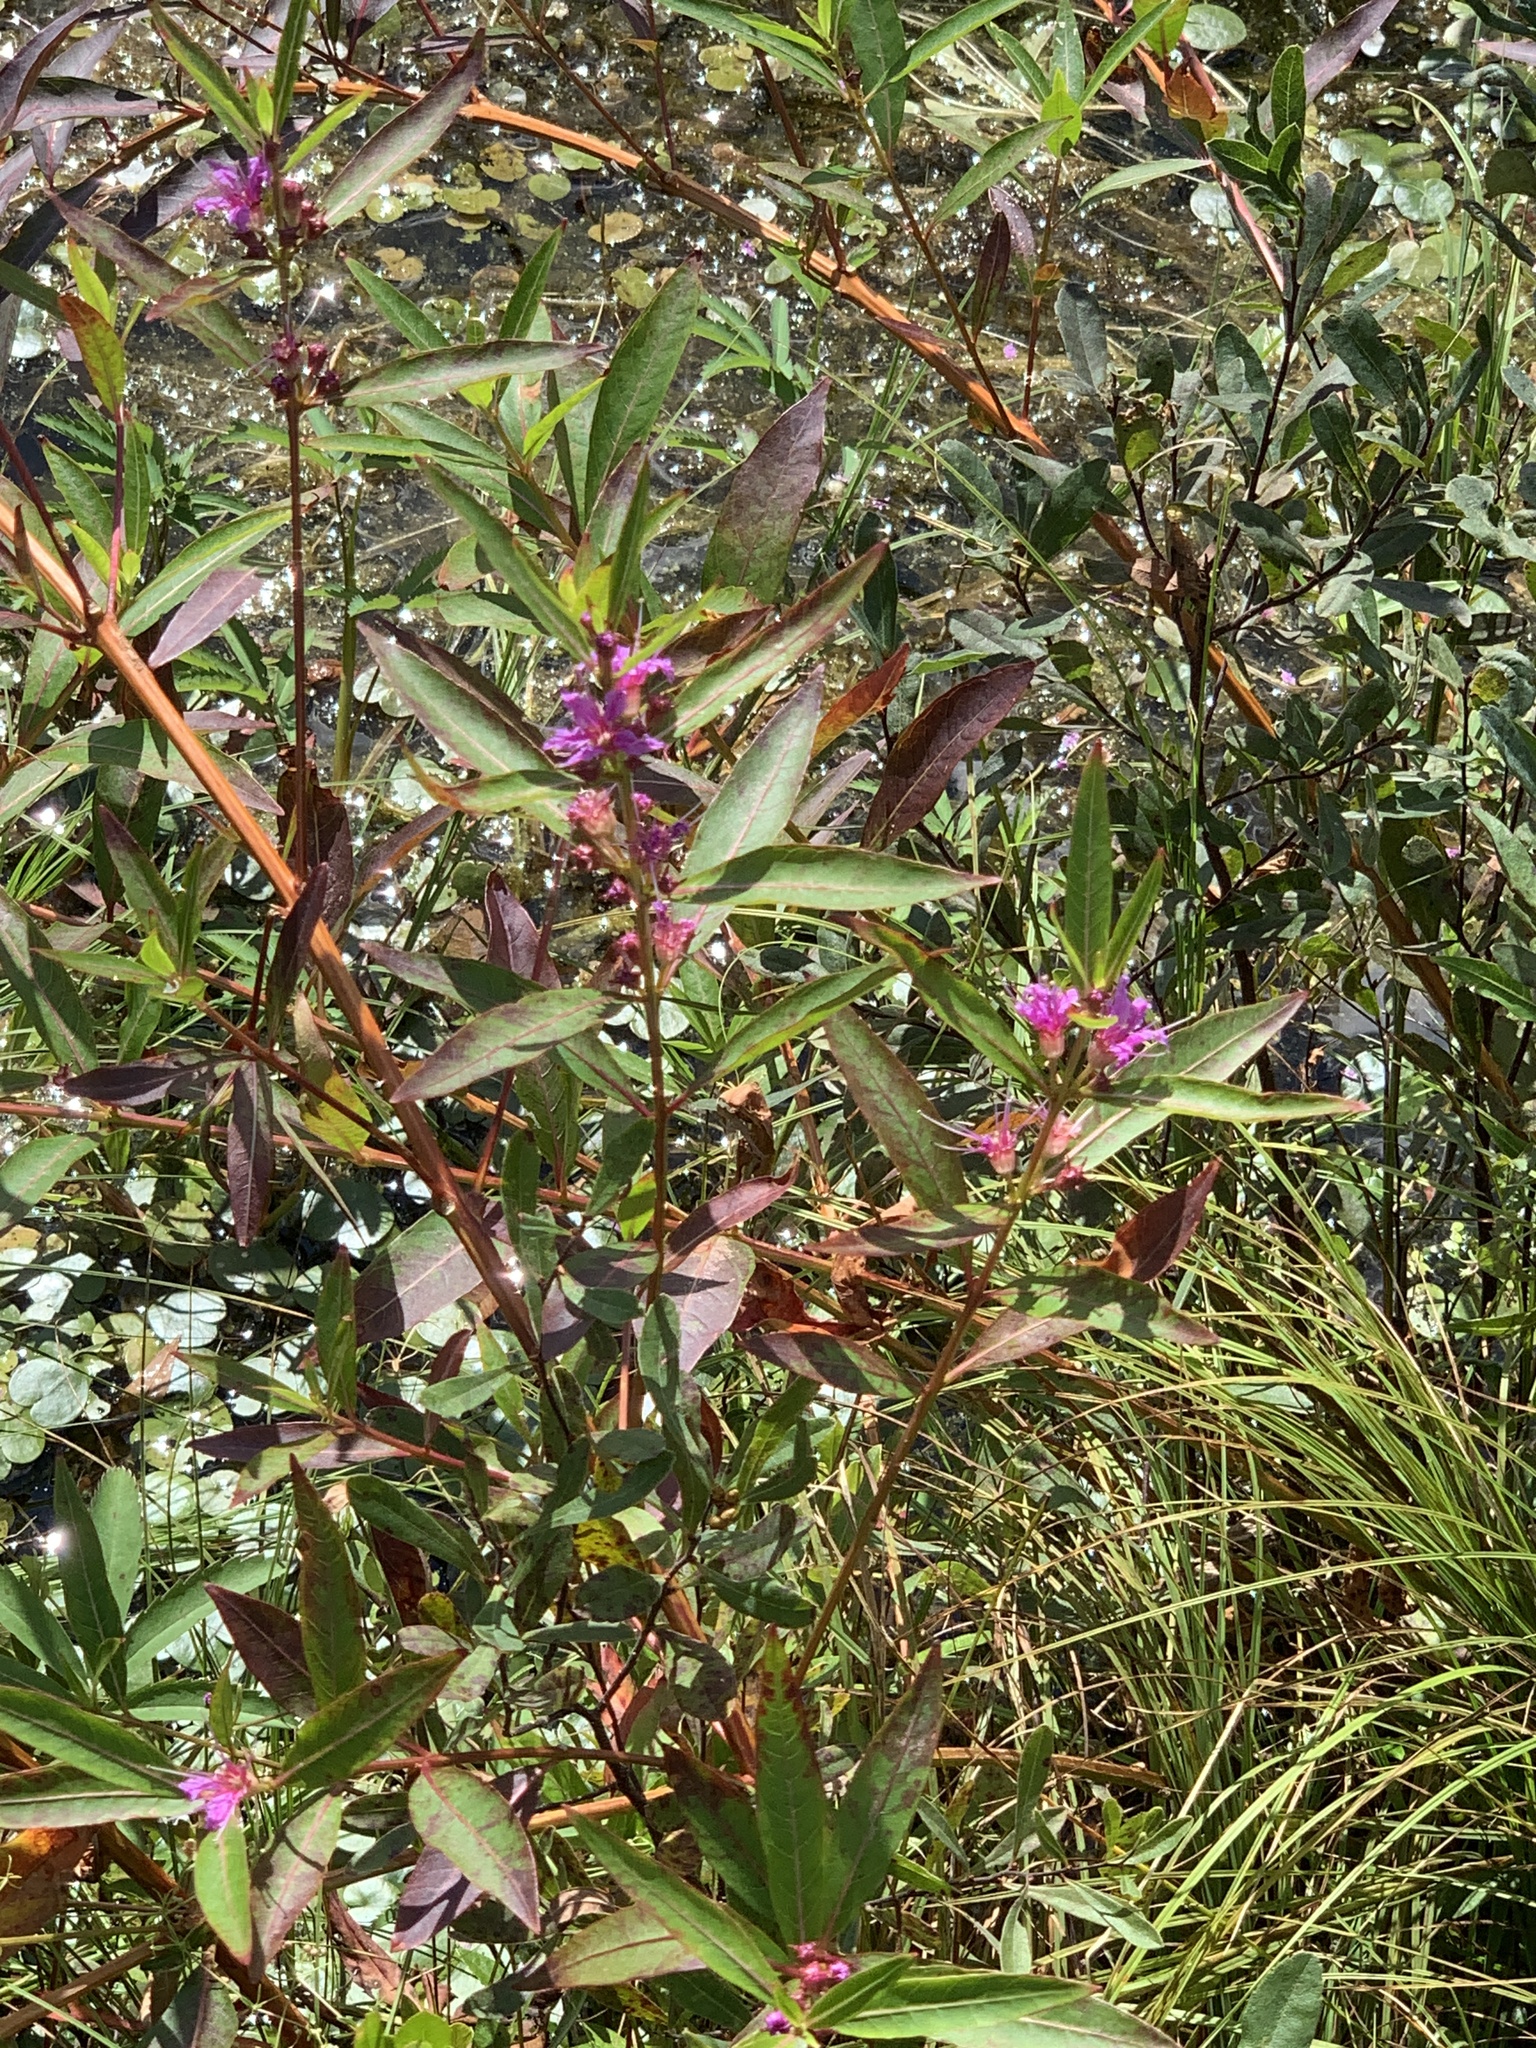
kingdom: Plantae
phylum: Tracheophyta
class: Magnoliopsida
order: Myrtales
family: Lythraceae
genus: Decodon
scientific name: Decodon verticillatus
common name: Hairy swamp loosestrife
